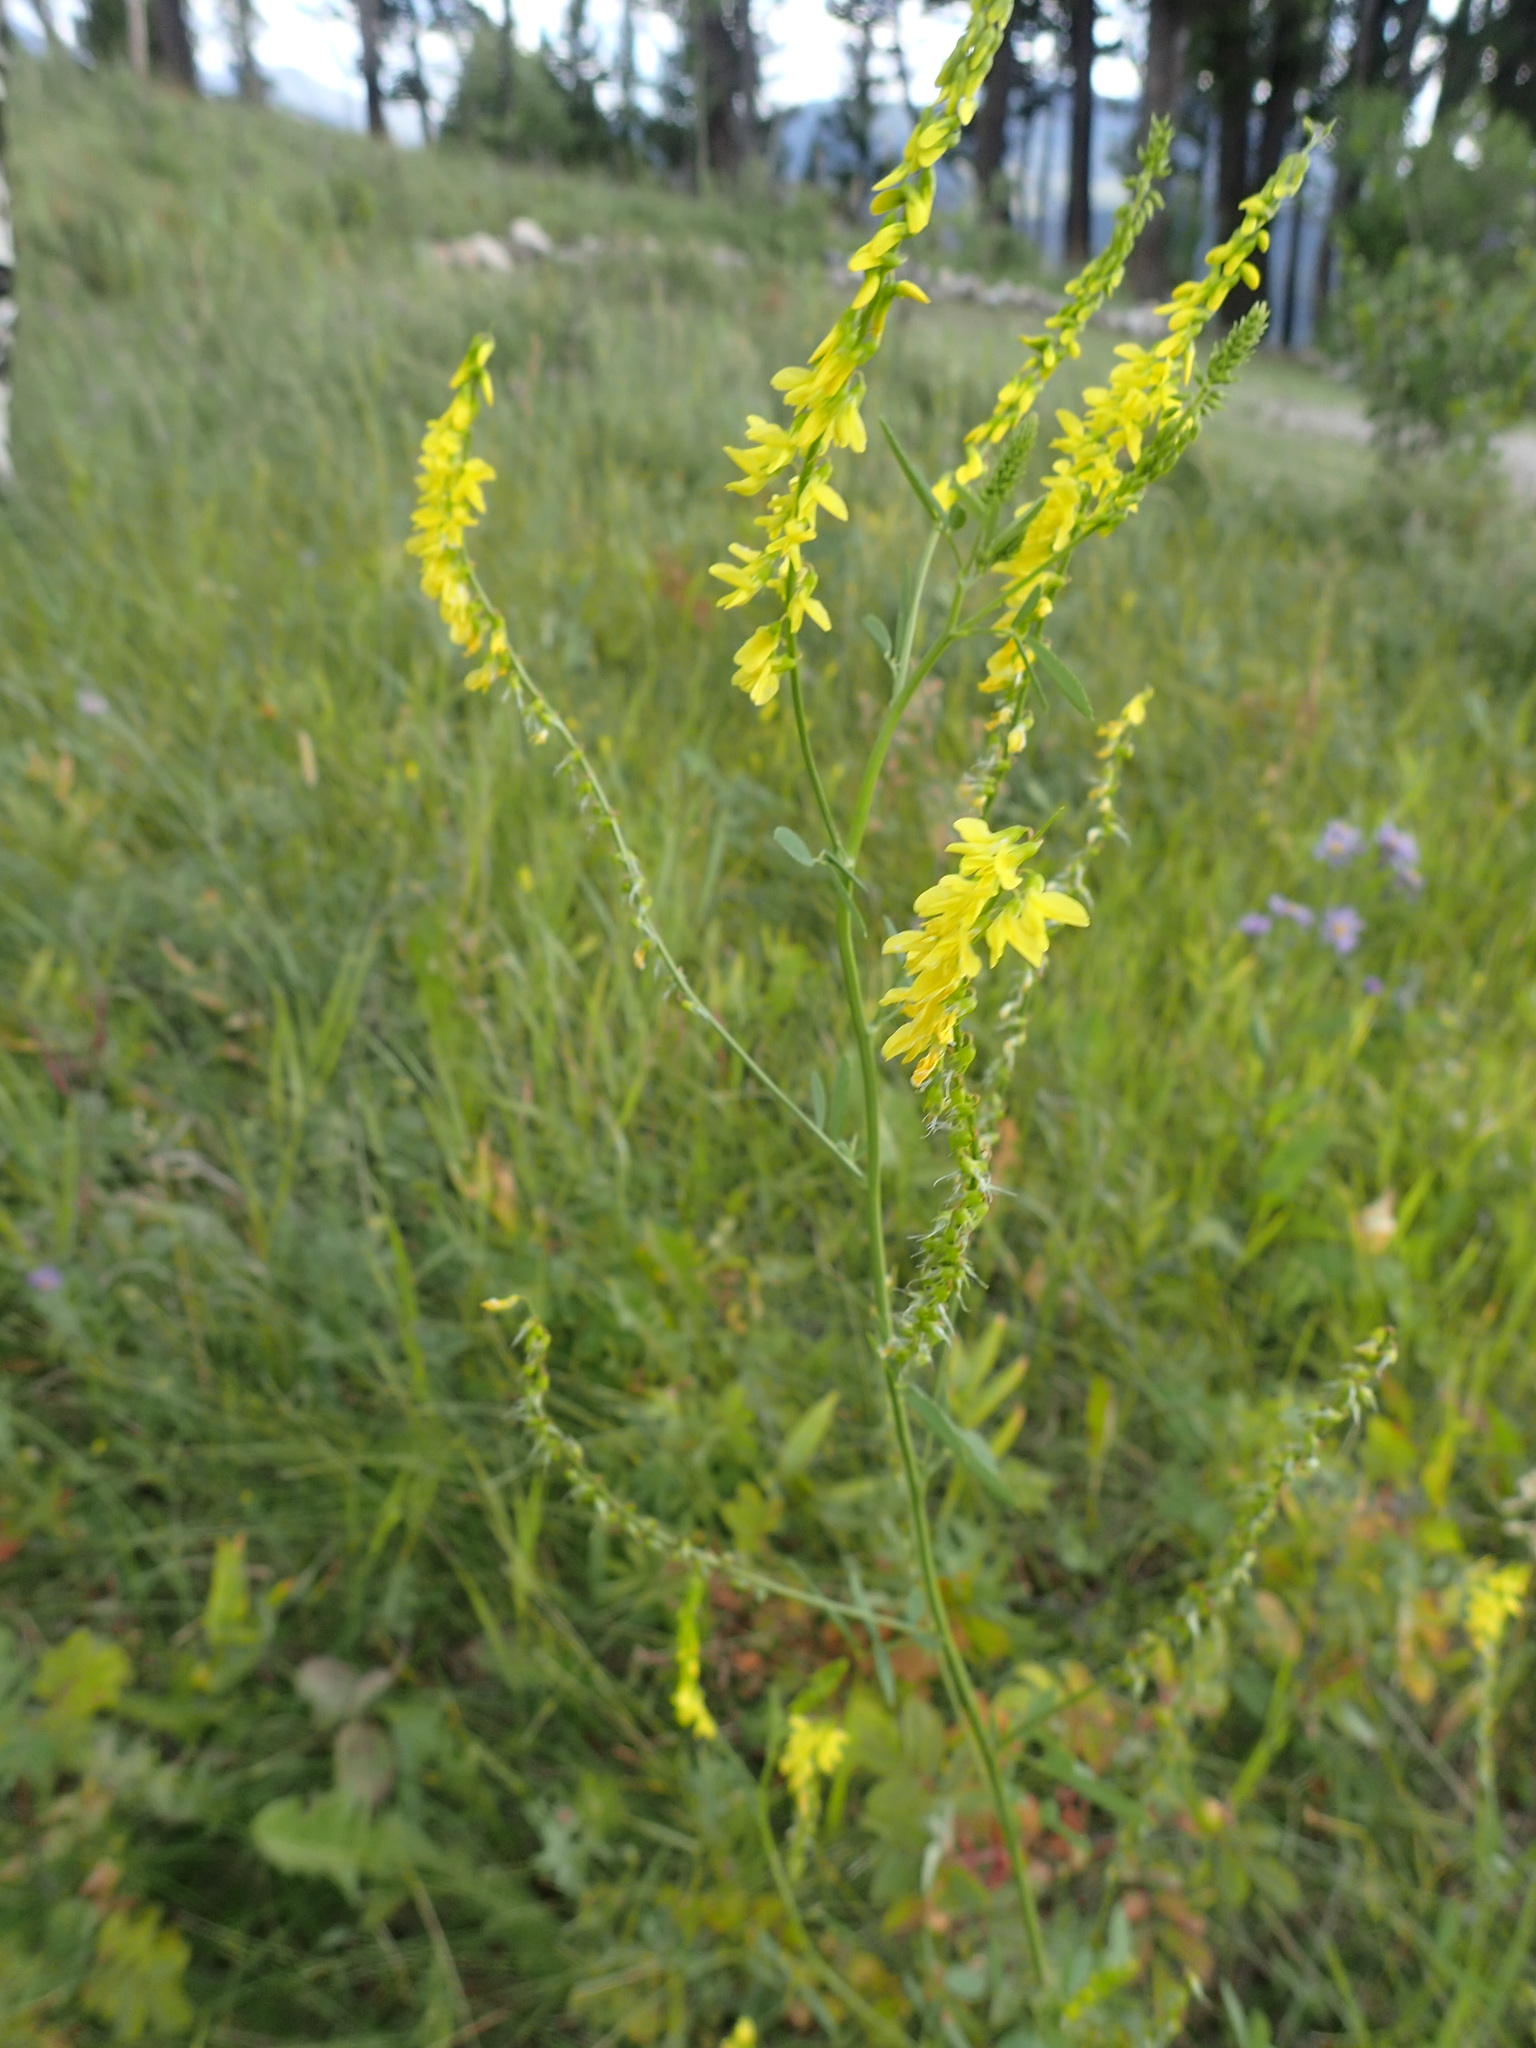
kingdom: Plantae
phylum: Tracheophyta
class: Magnoliopsida
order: Fabales
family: Fabaceae
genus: Melilotus
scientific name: Melilotus officinalis
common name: Sweetclover
